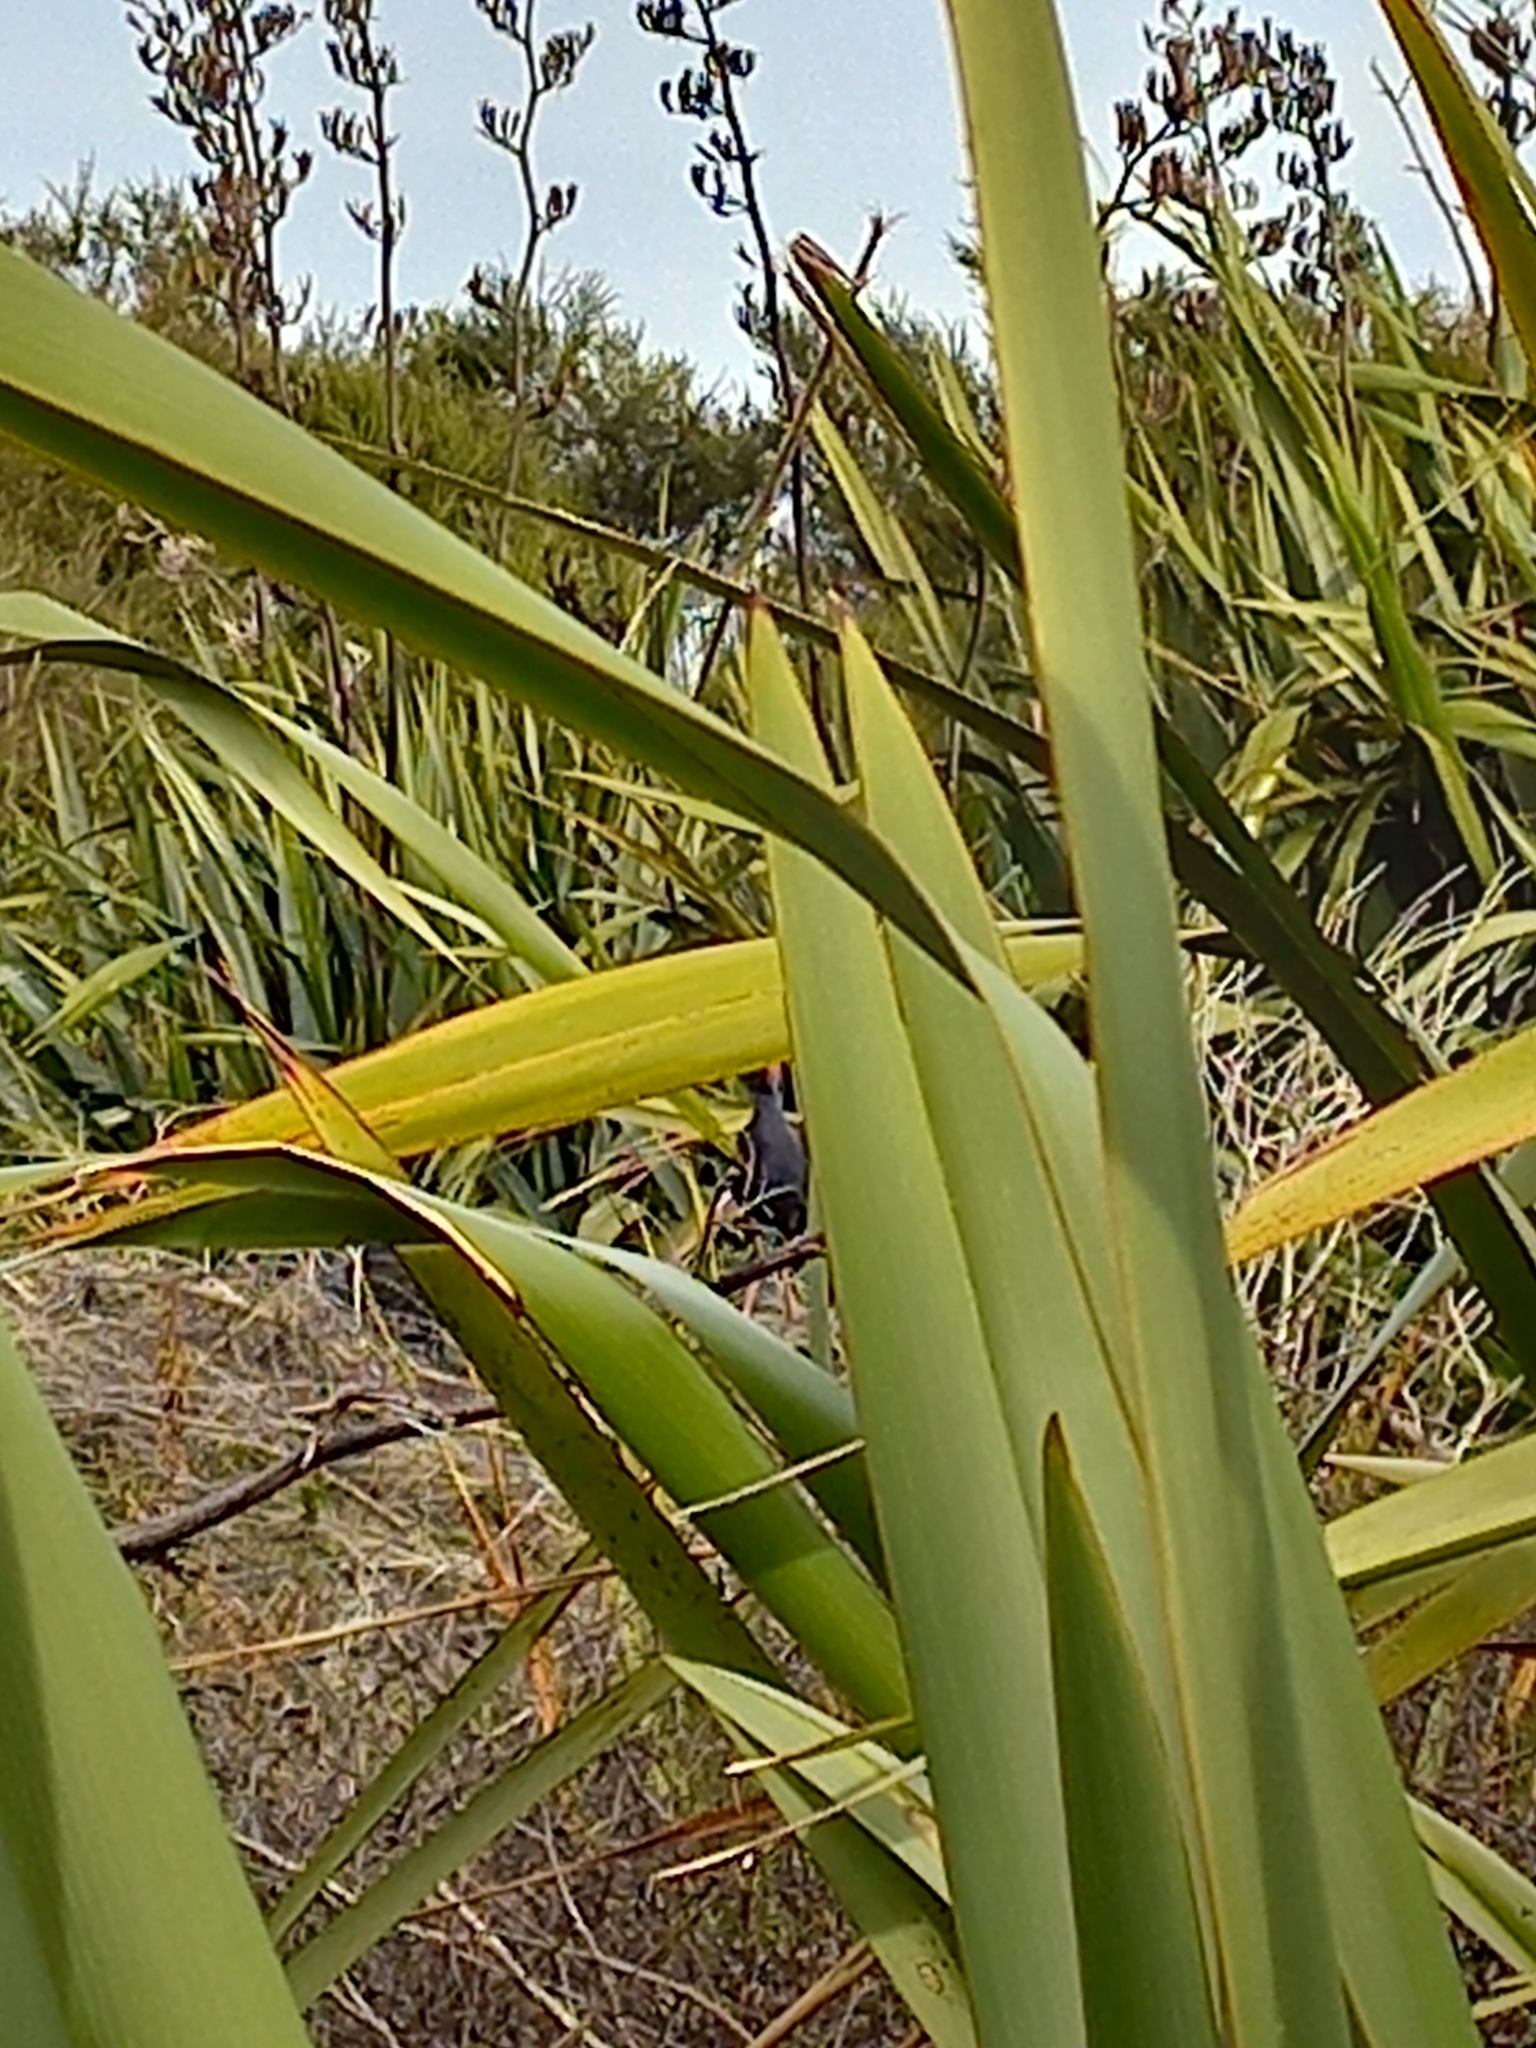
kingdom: Plantae
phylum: Tracheophyta
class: Liliopsida
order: Asparagales
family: Asphodelaceae
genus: Phormium
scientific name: Phormium tenax
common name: New zealand flax
